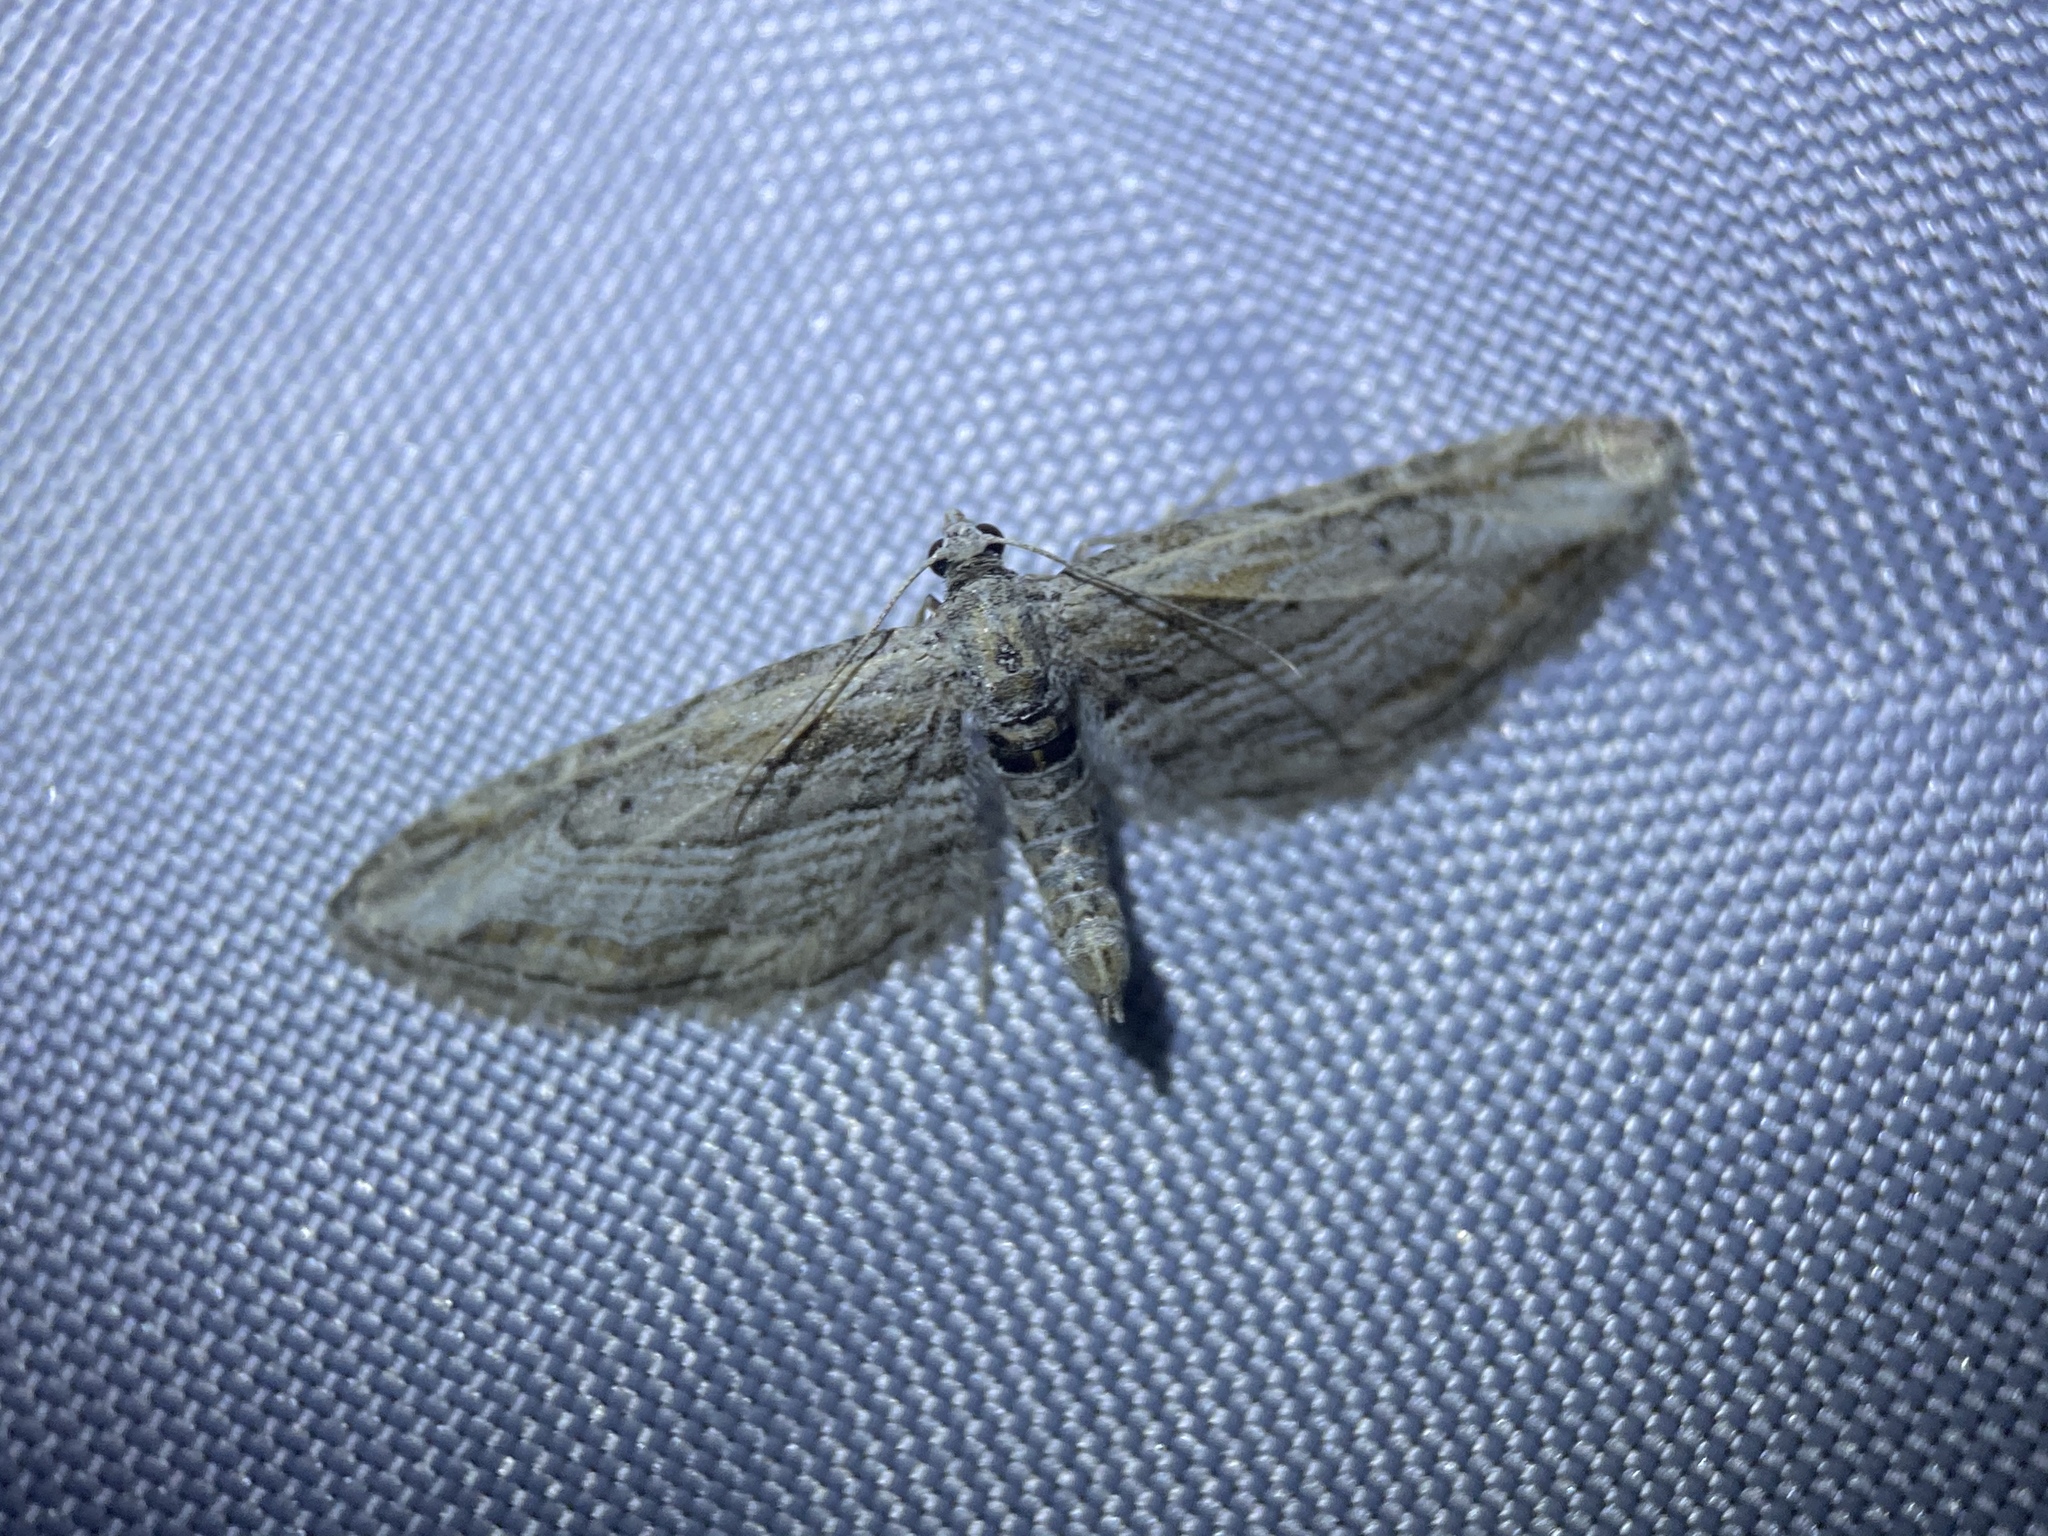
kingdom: Animalia
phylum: Arthropoda
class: Insecta
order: Lepidoptera
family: Geometridae
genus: Eupithecia
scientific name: Eupithecia adequata
